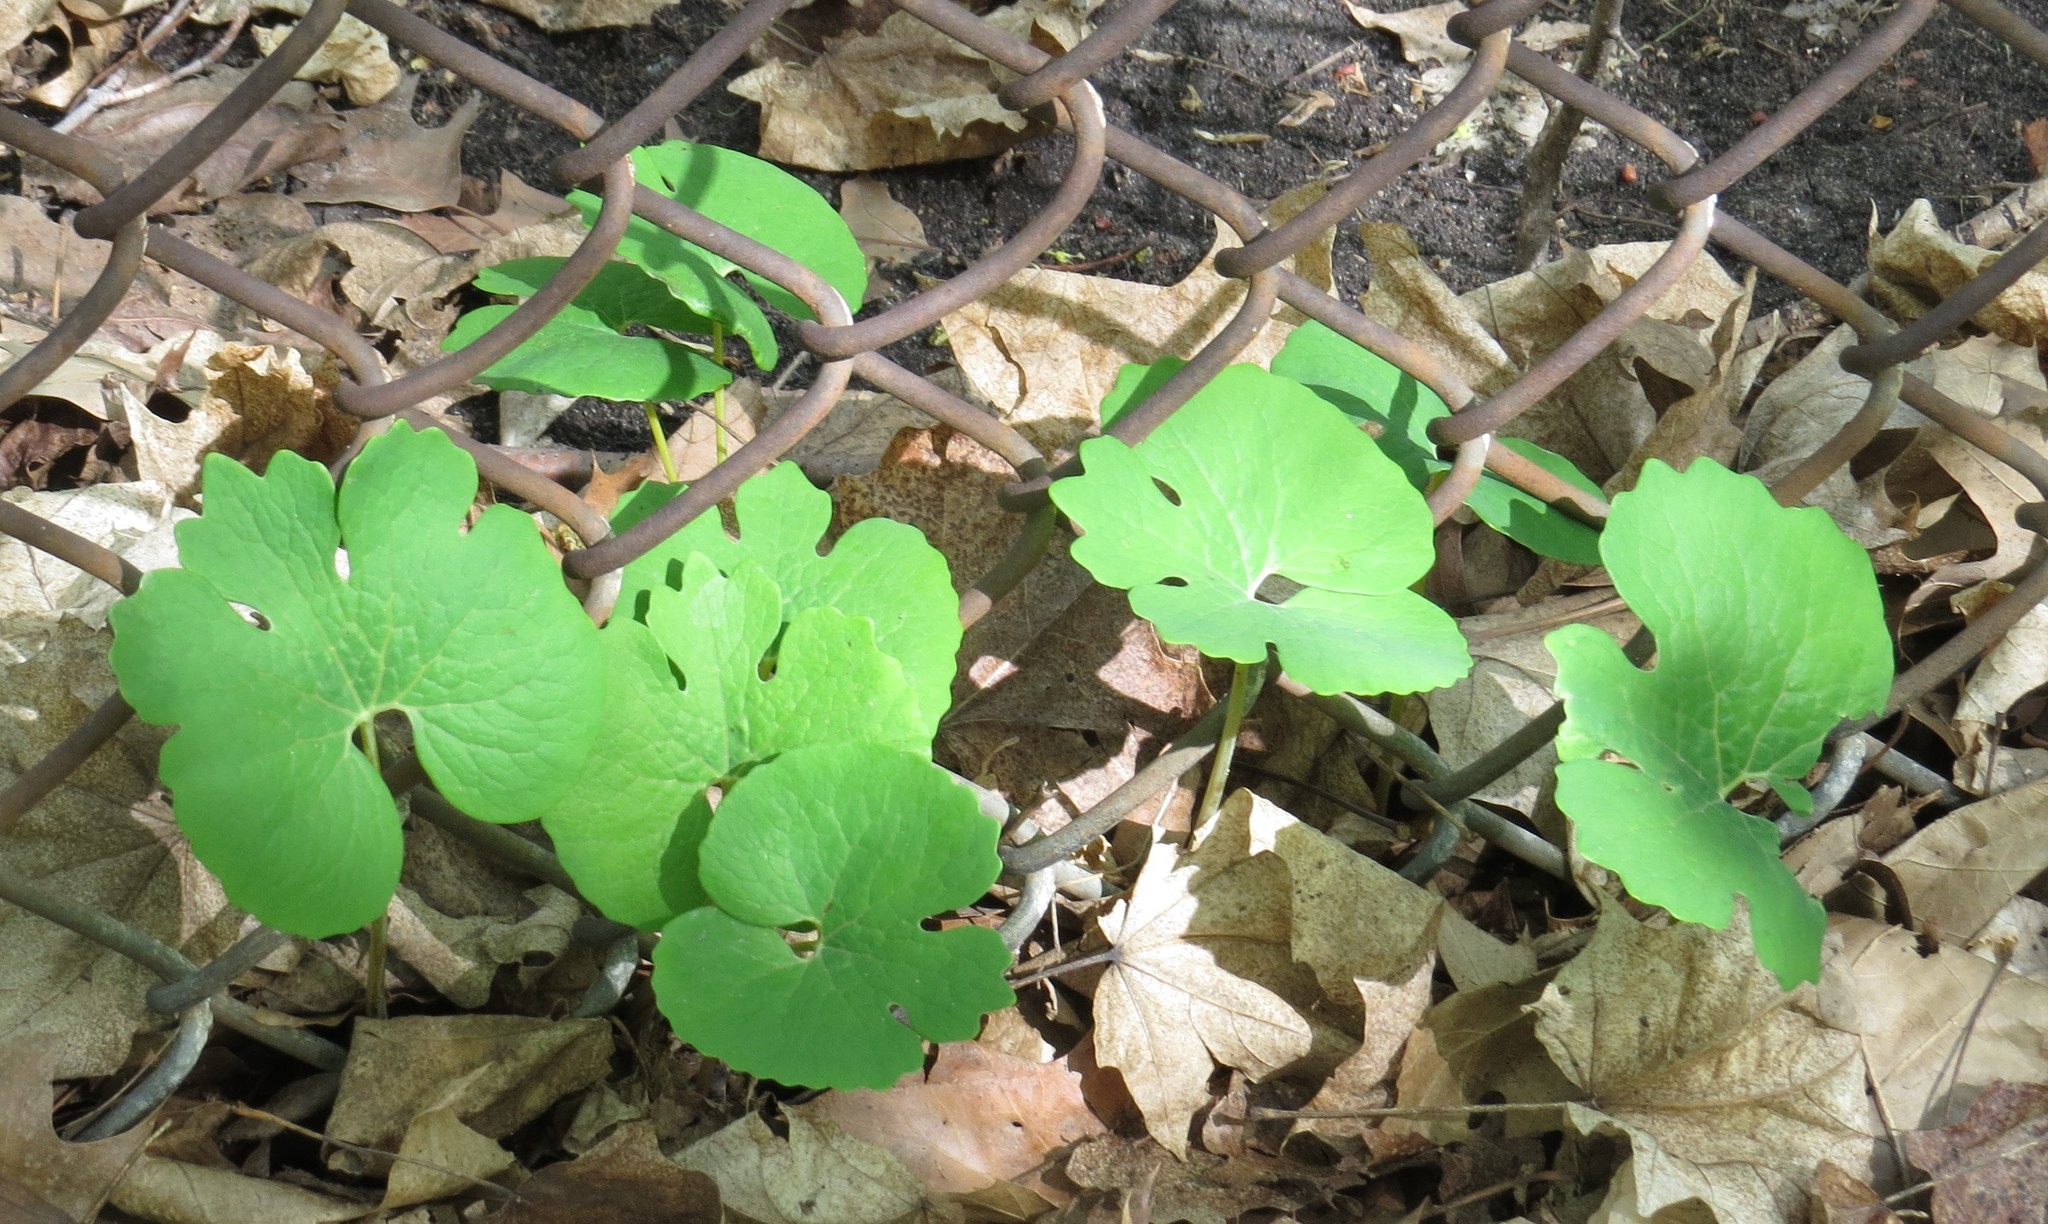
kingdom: Plantae
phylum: Tracheophyta
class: Magnoliopsida
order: Ranunculales
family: Papaveraceae
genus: Sanguinaria
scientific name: Sanguinaria canadensis
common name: Bloodroot
